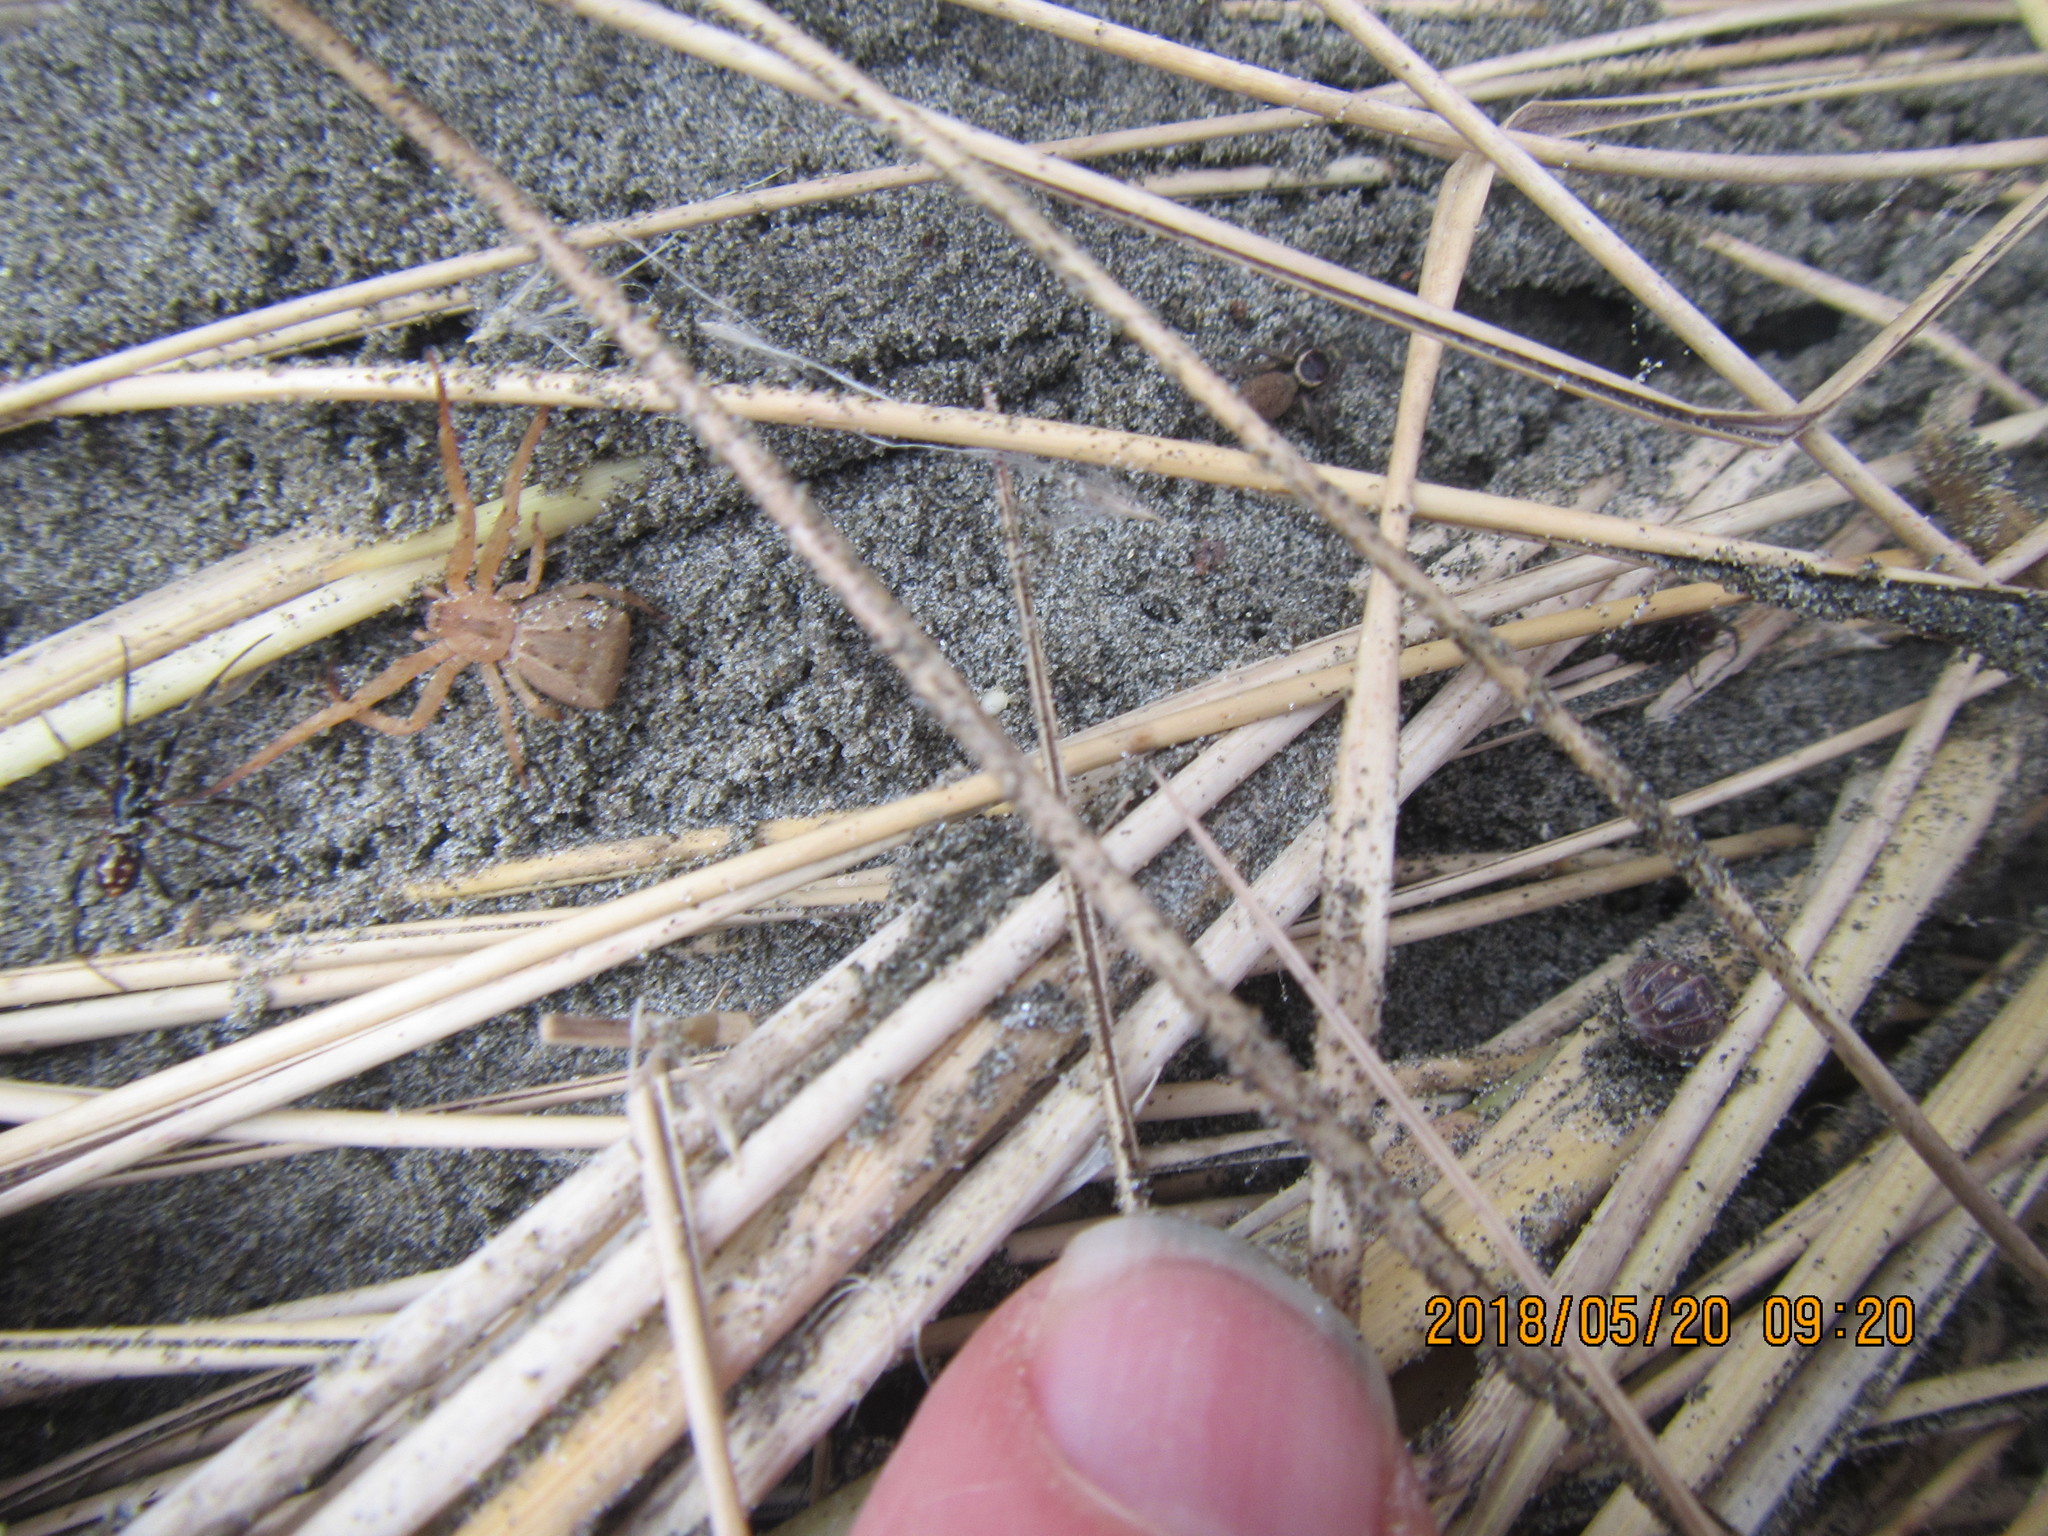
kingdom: Animalia
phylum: Arthropoda
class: Arachnida
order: Araneae
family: Thomisidae
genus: Sidymella
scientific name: Sidymella trapezia
